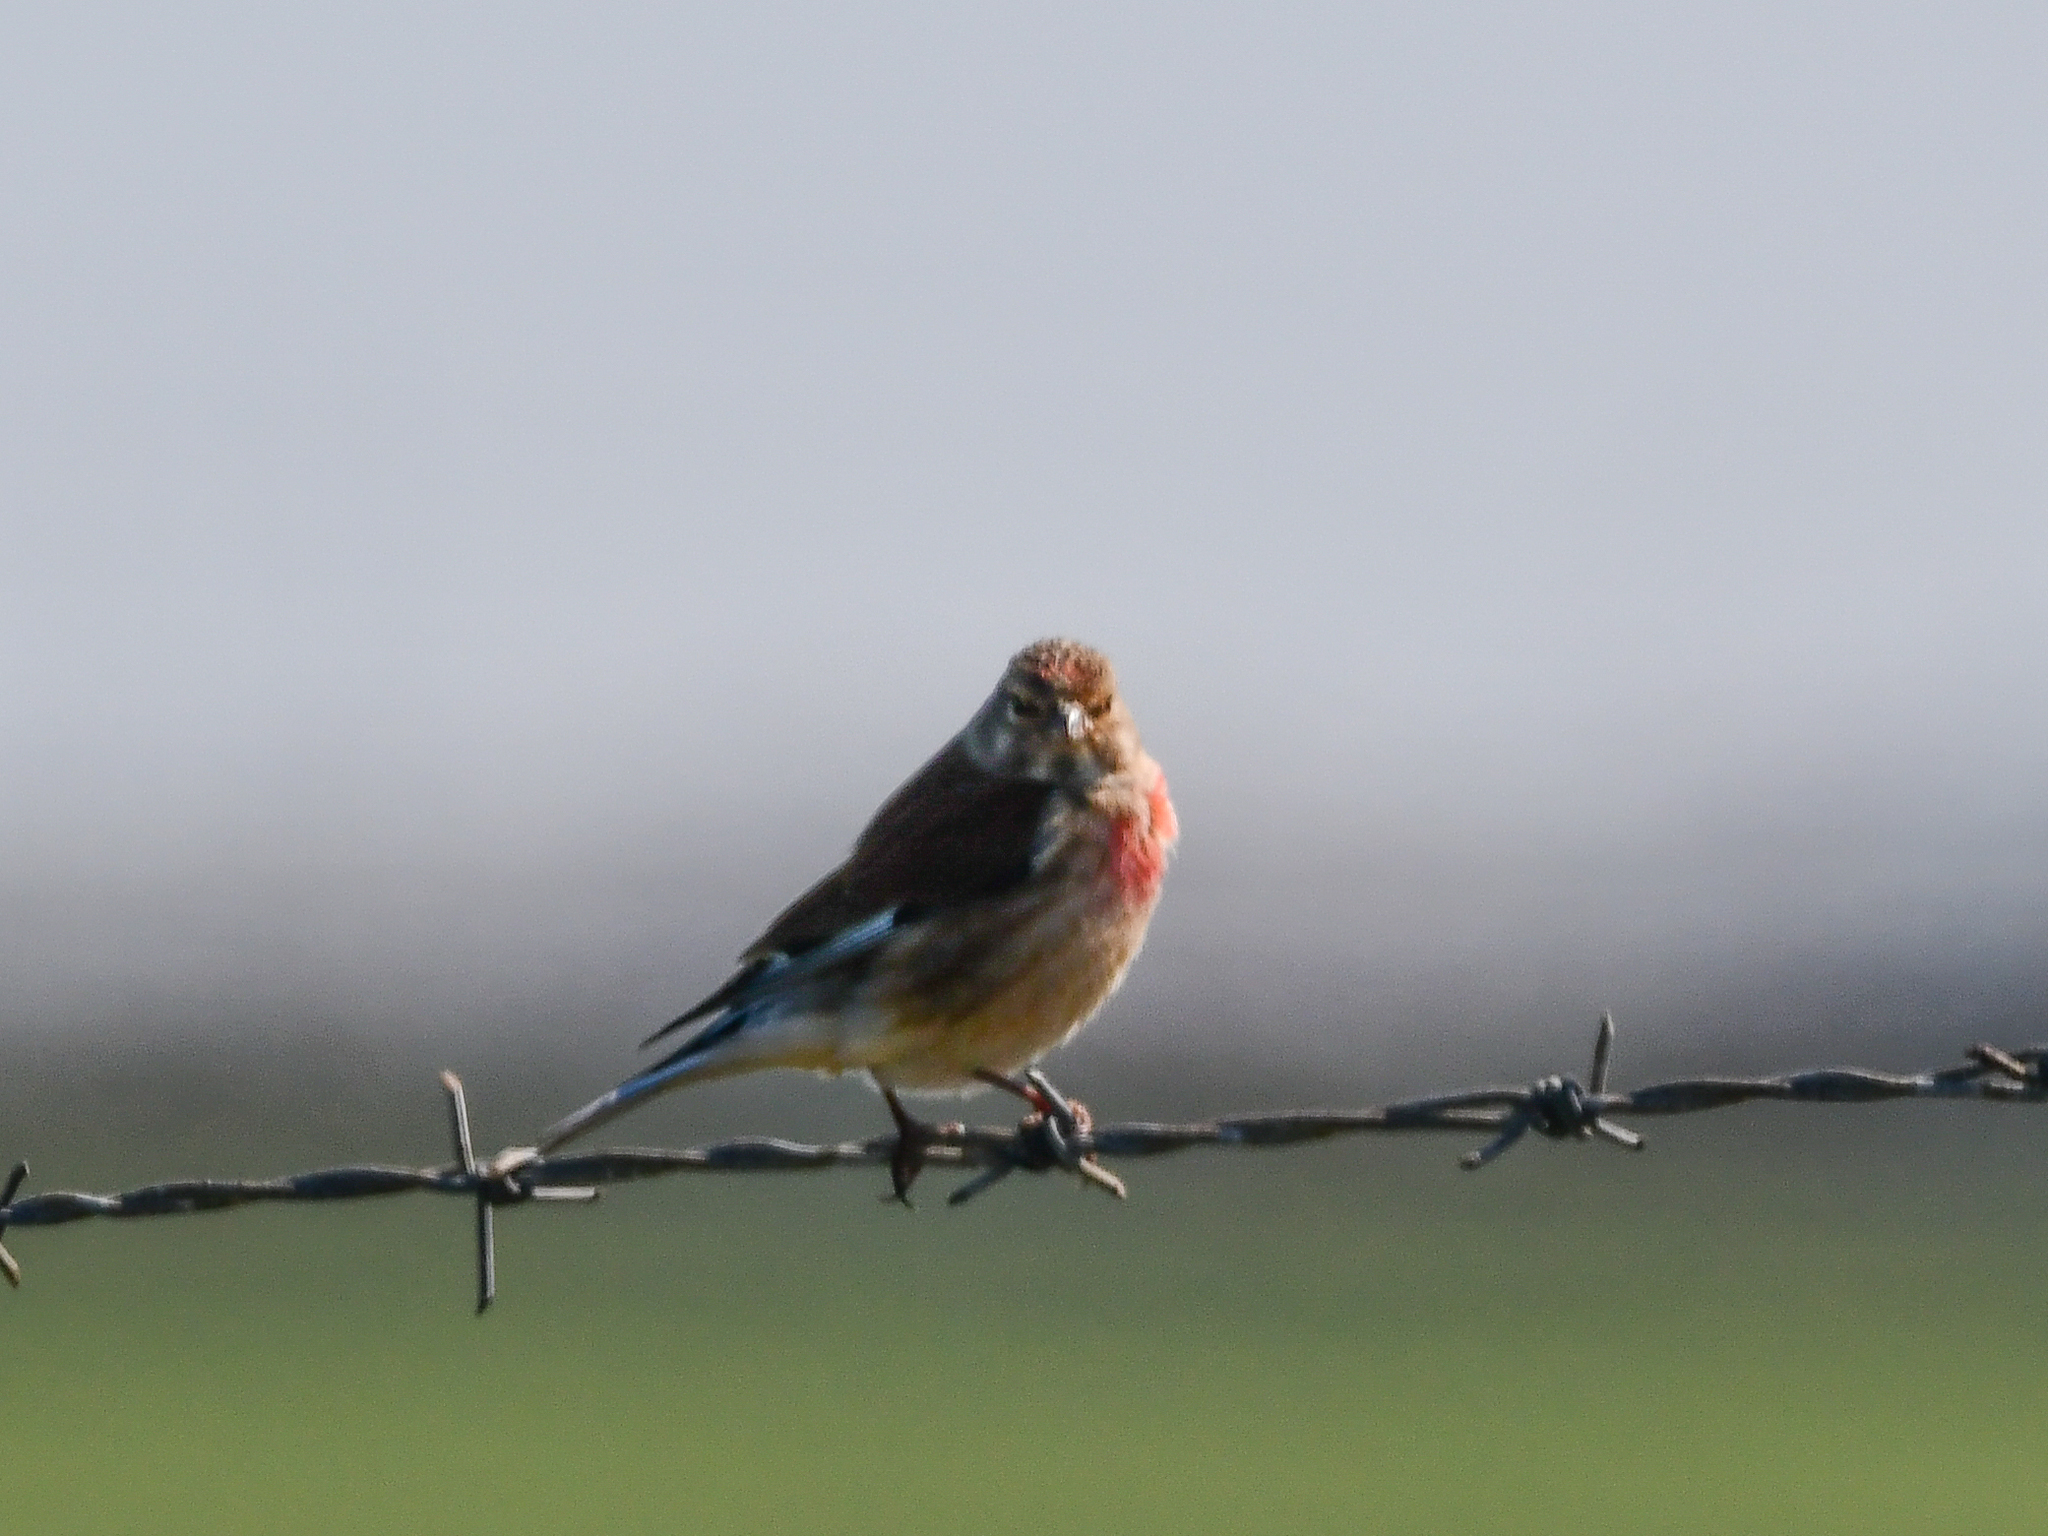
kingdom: Animalia
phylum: Chordata
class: Aves
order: Passeriformes
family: Fringillidae
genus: Linaria
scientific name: Linaria cannabina
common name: Common linnet
